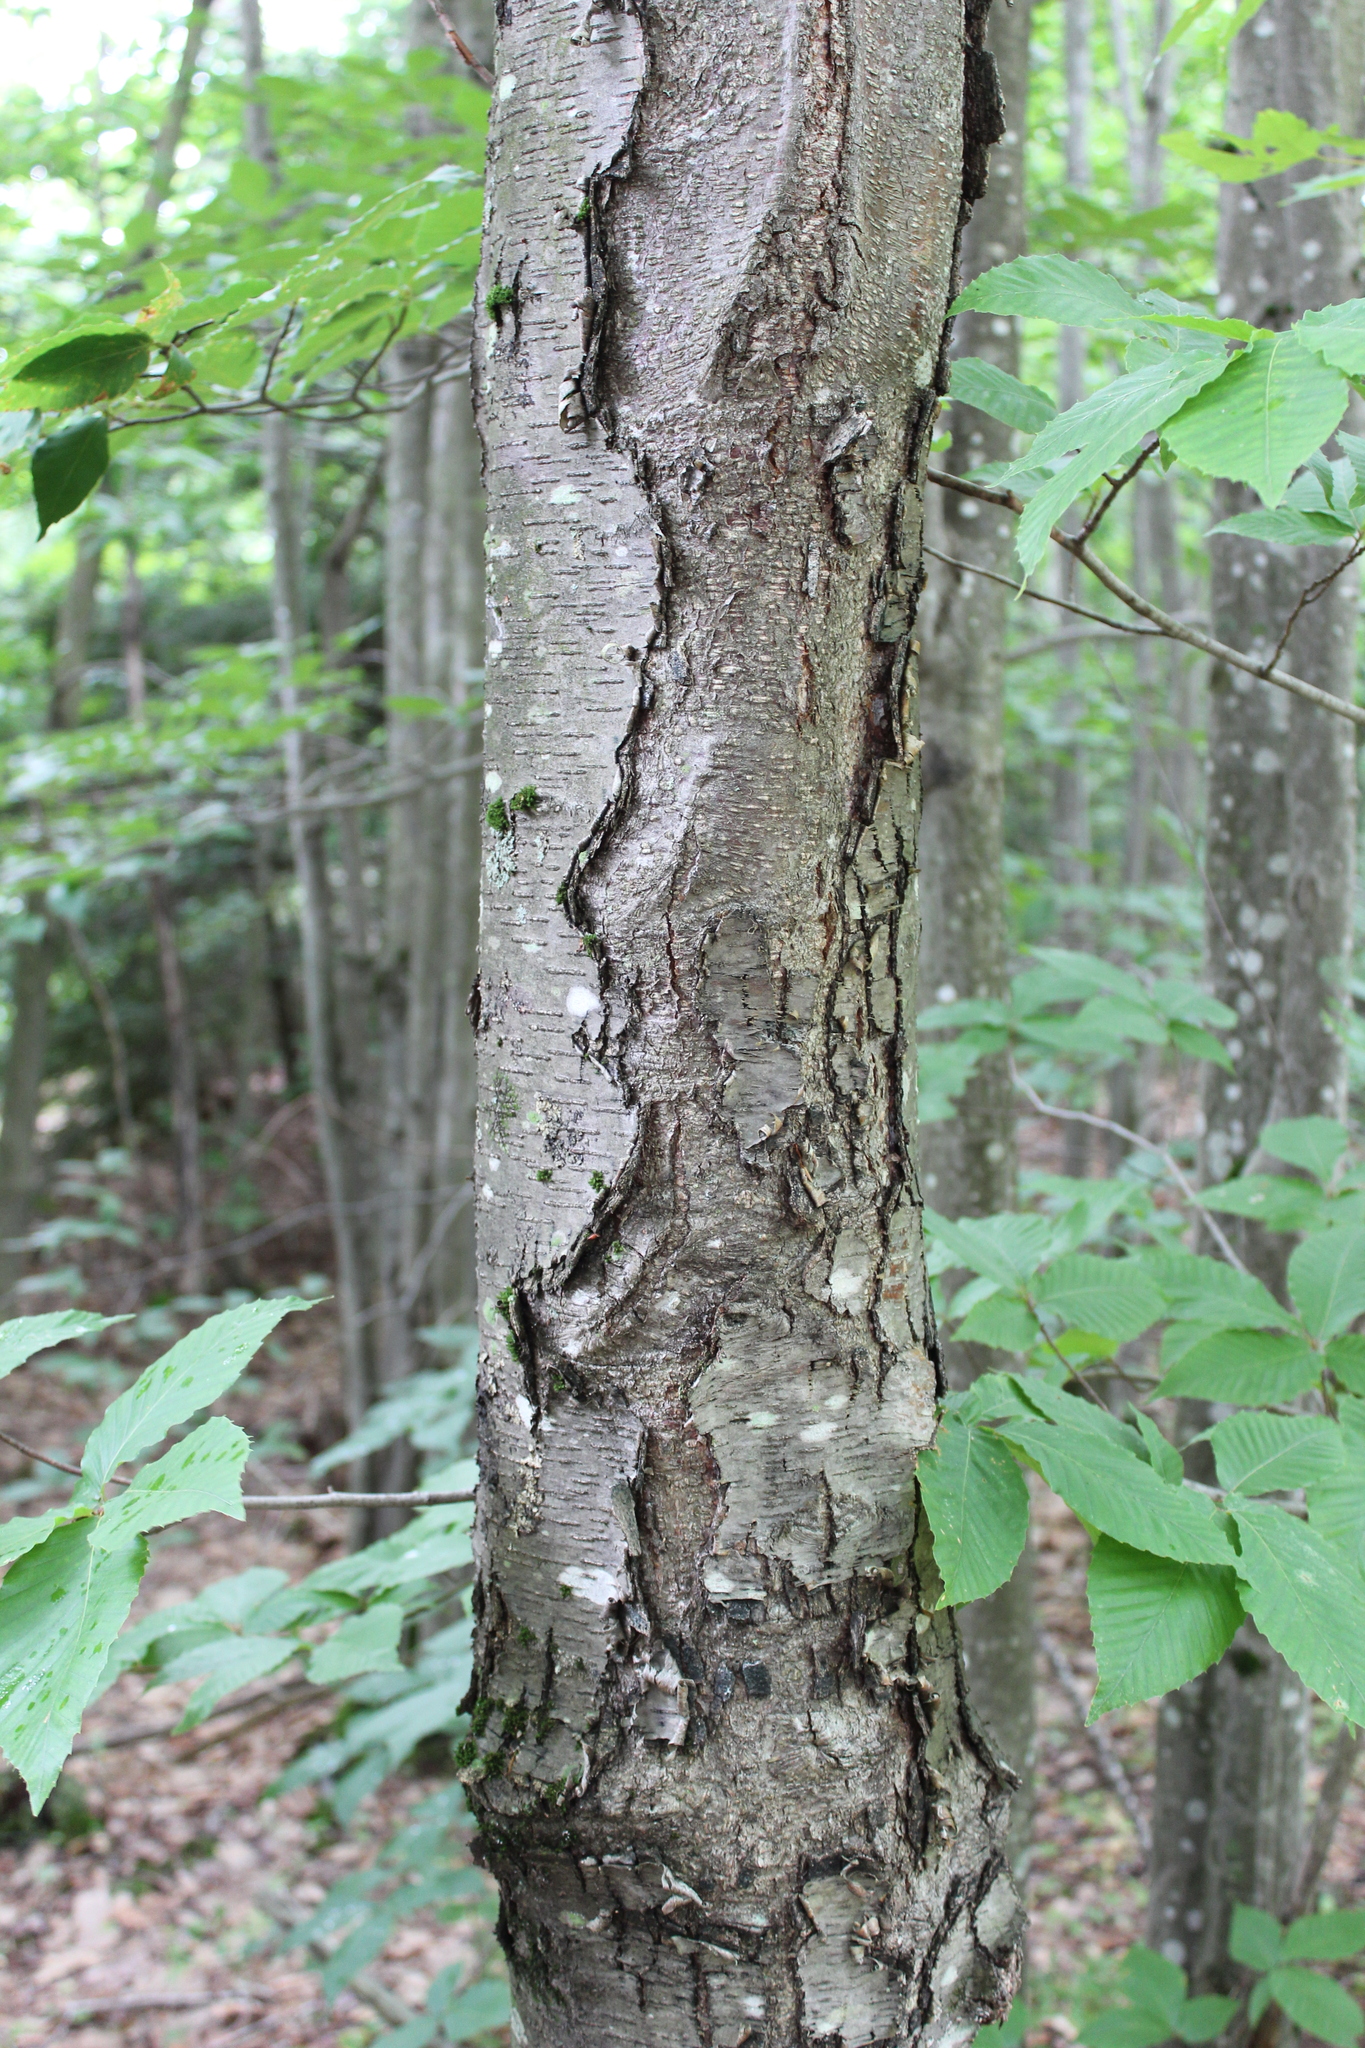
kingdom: Plantae
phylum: Tracheophyta
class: Magnoliopsida
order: Fagales
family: Betulaceae
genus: Betula
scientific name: Betula lenta
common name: Black birch
